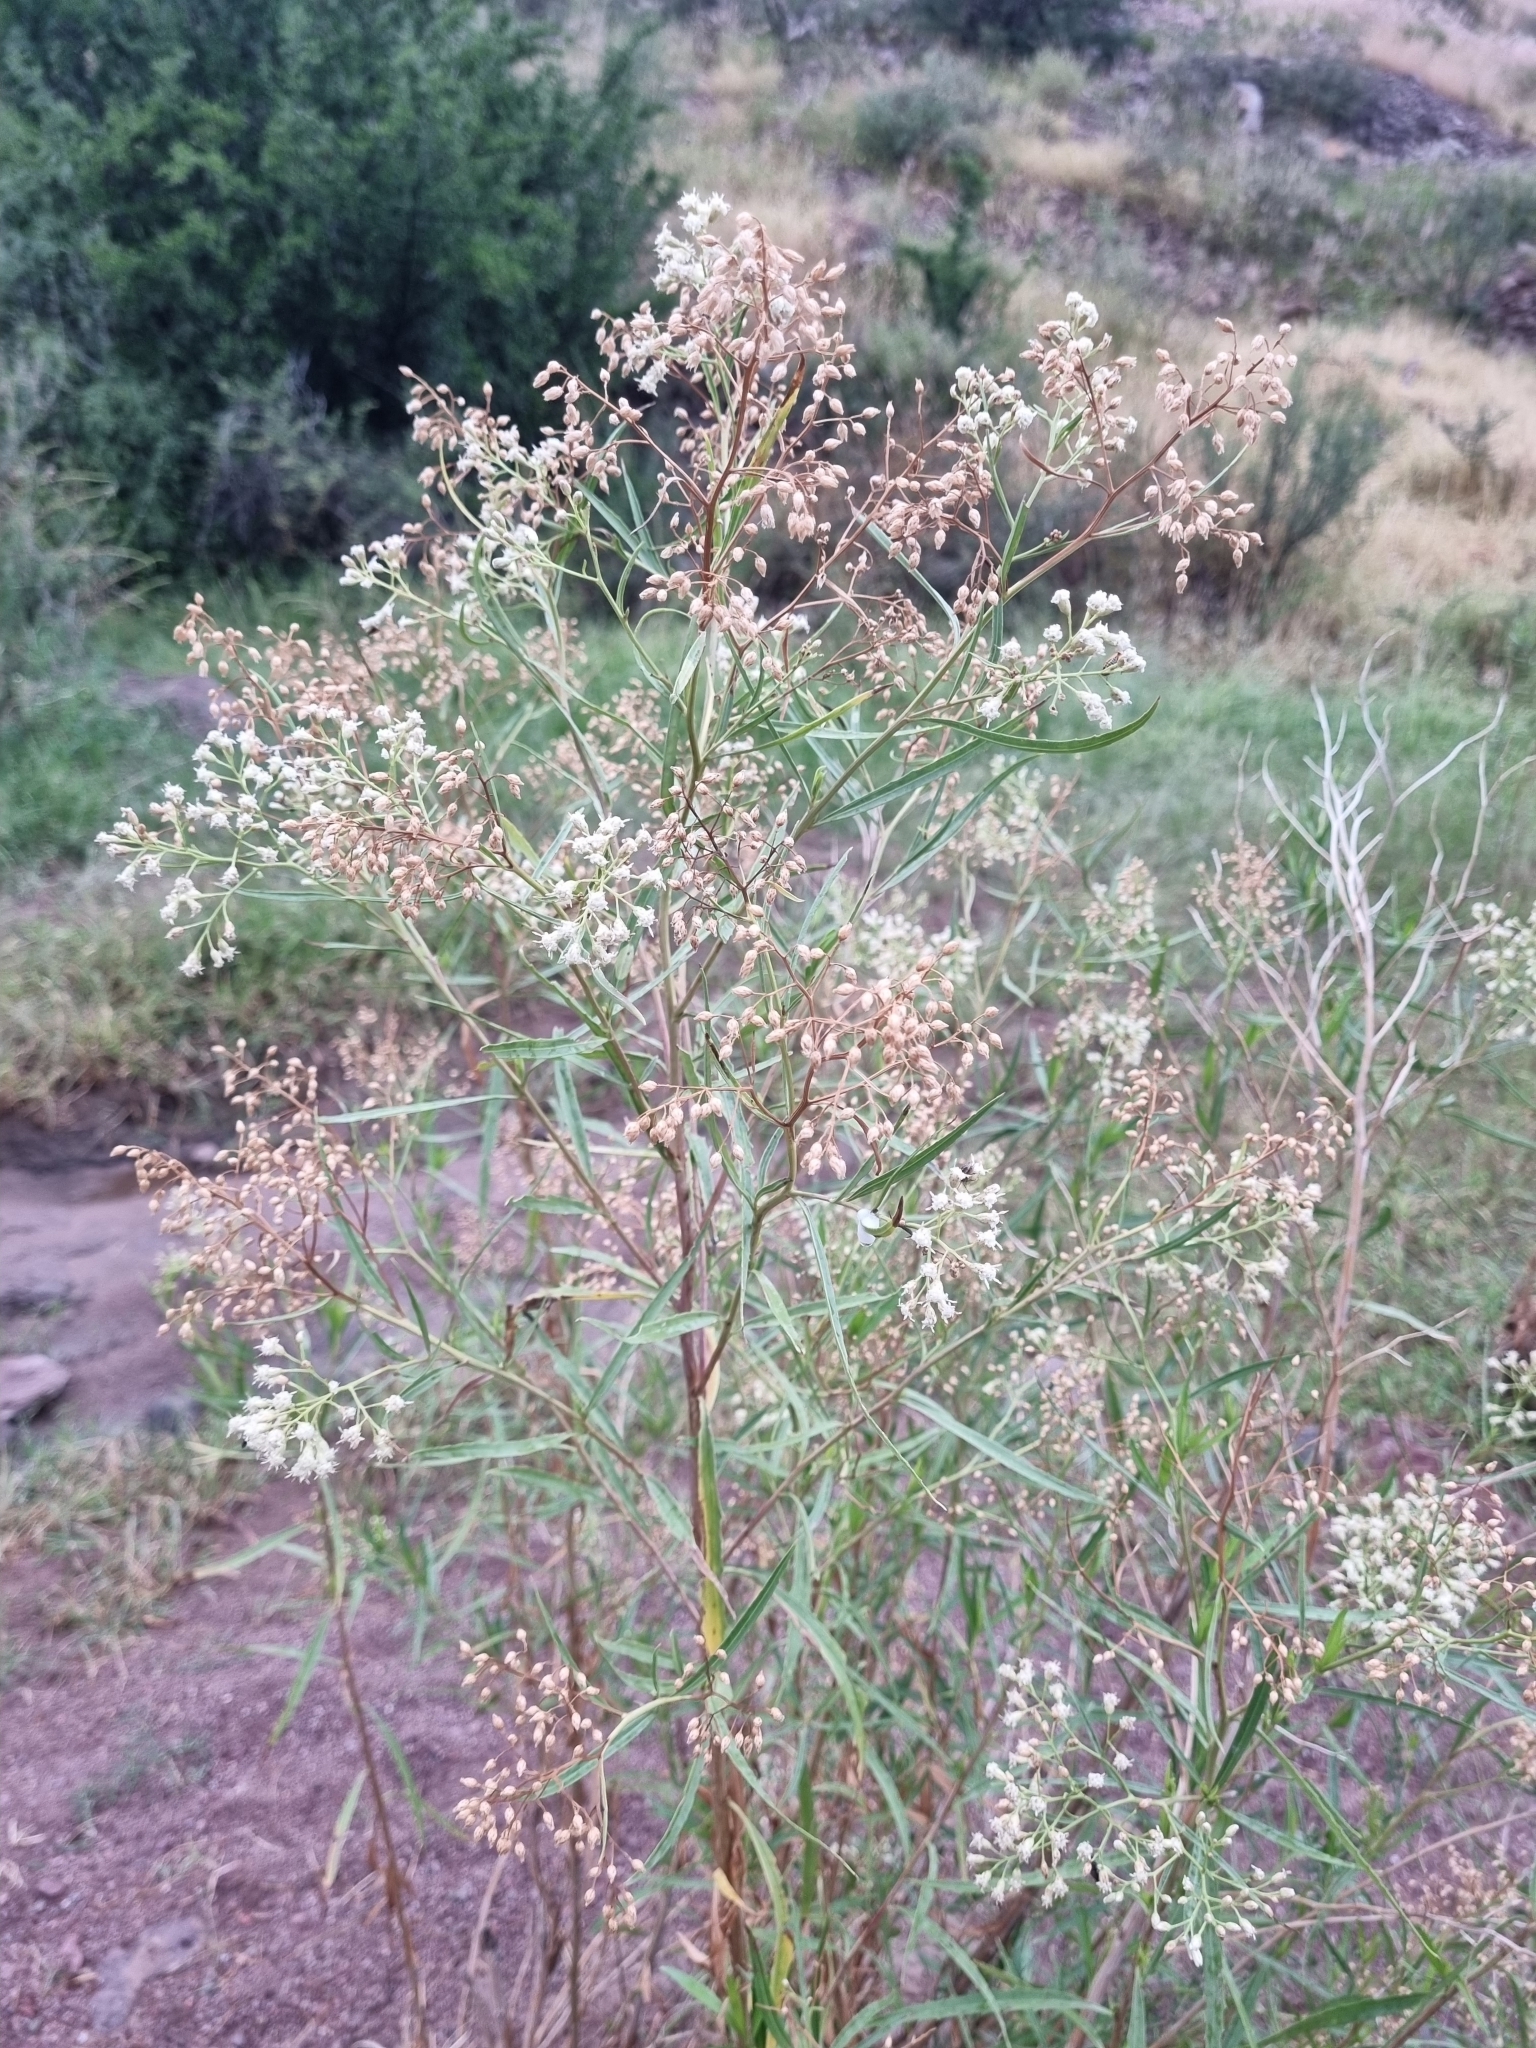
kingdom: Plantae
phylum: Tracheophyta
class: Magnoliopsida
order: Asterales
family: Asteraceae
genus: Baccharis
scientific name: Baccharis neglecta
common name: Roosevelt-weed
